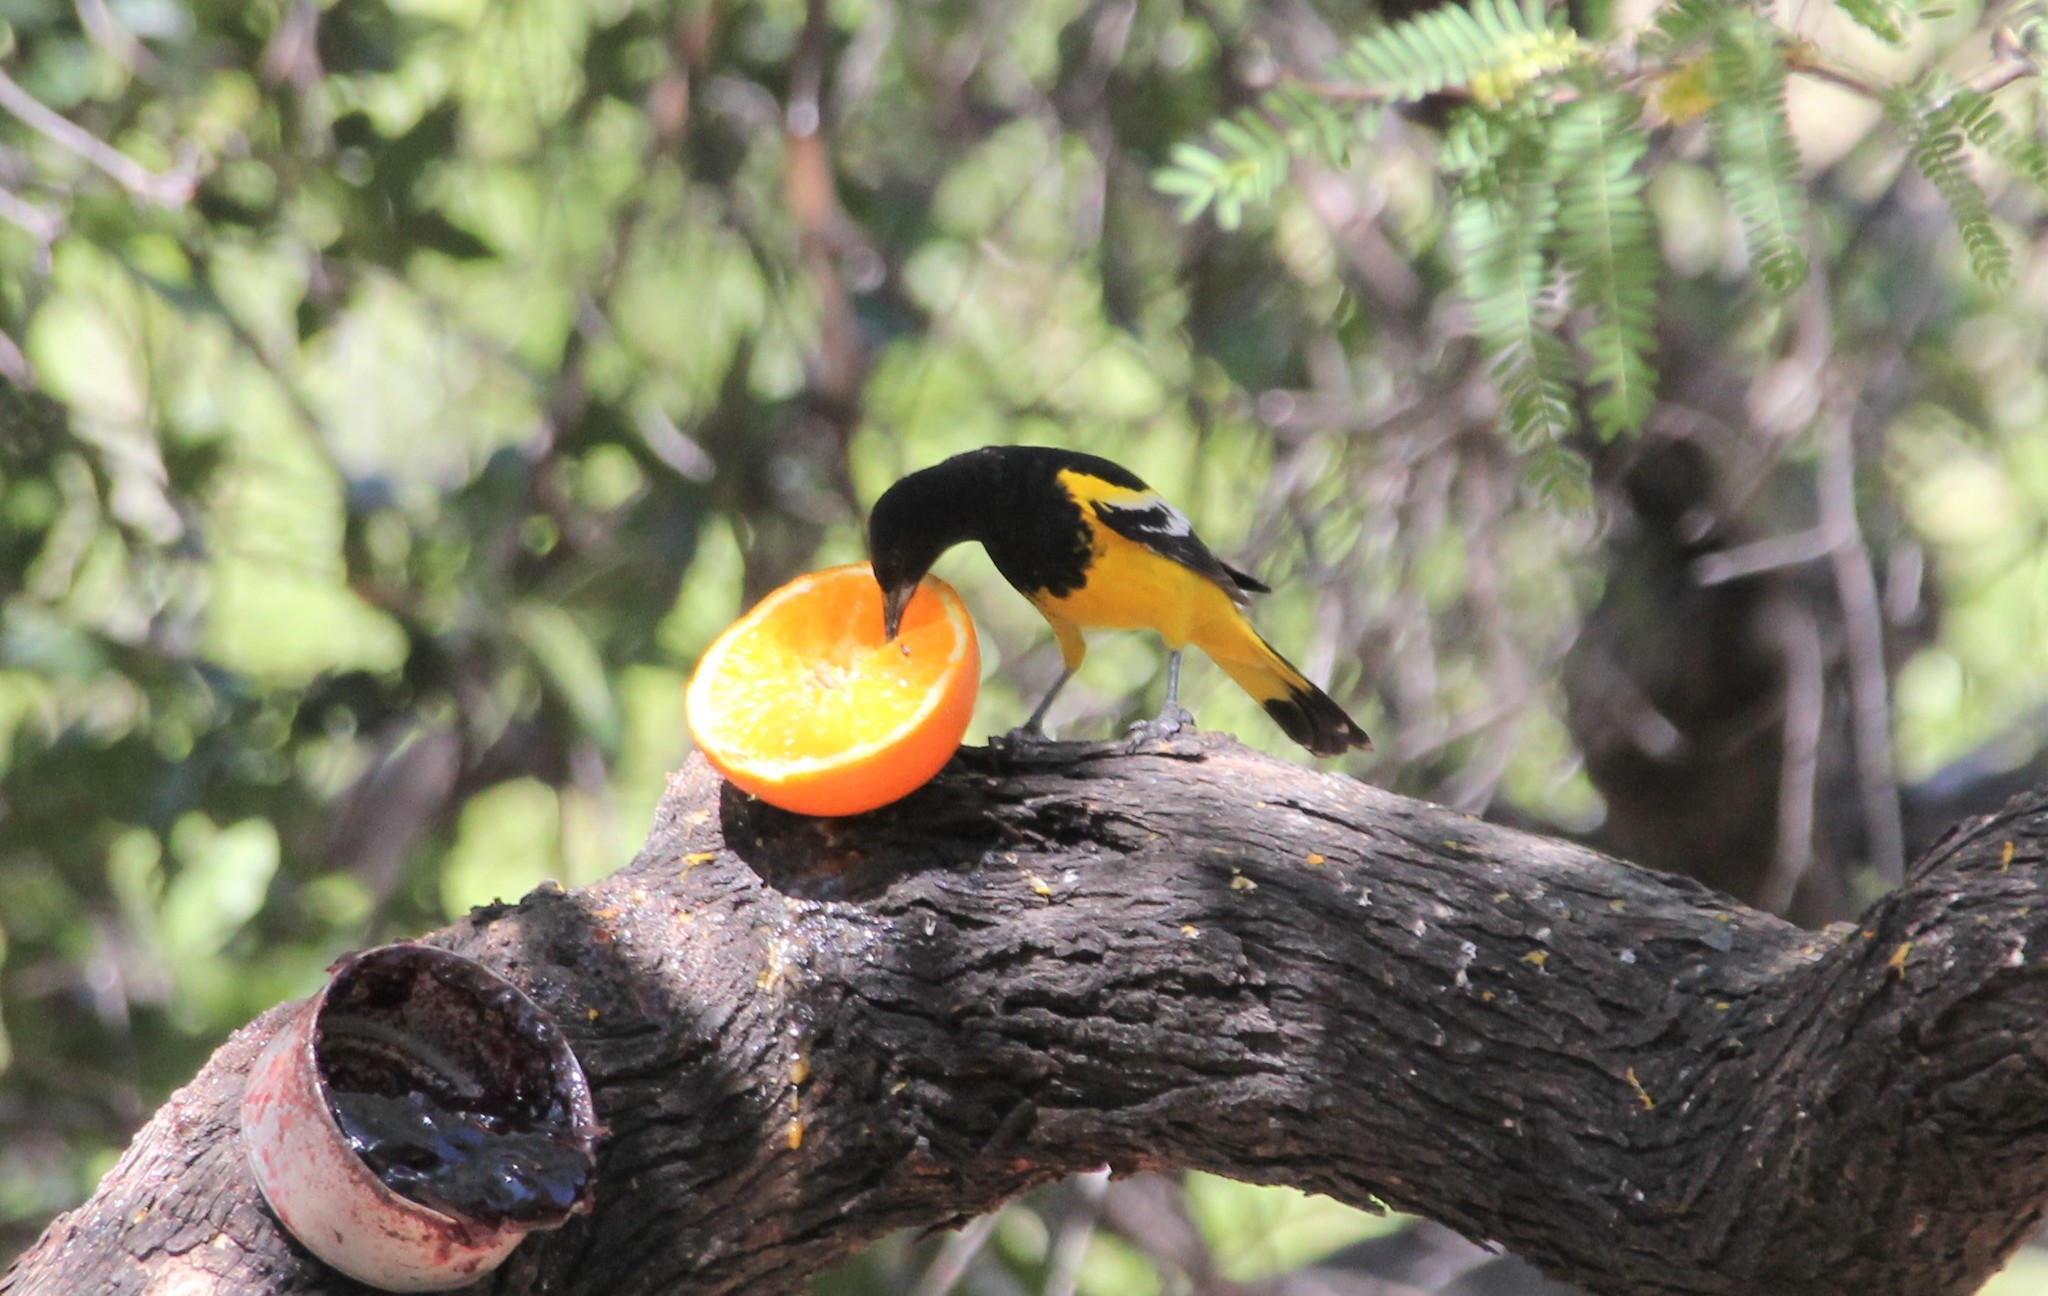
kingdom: Animalia
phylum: Chordata
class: Aves
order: Passeriformes
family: Icteridae
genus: Icterus
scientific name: Icterus parisorum
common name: Scott's oriole
